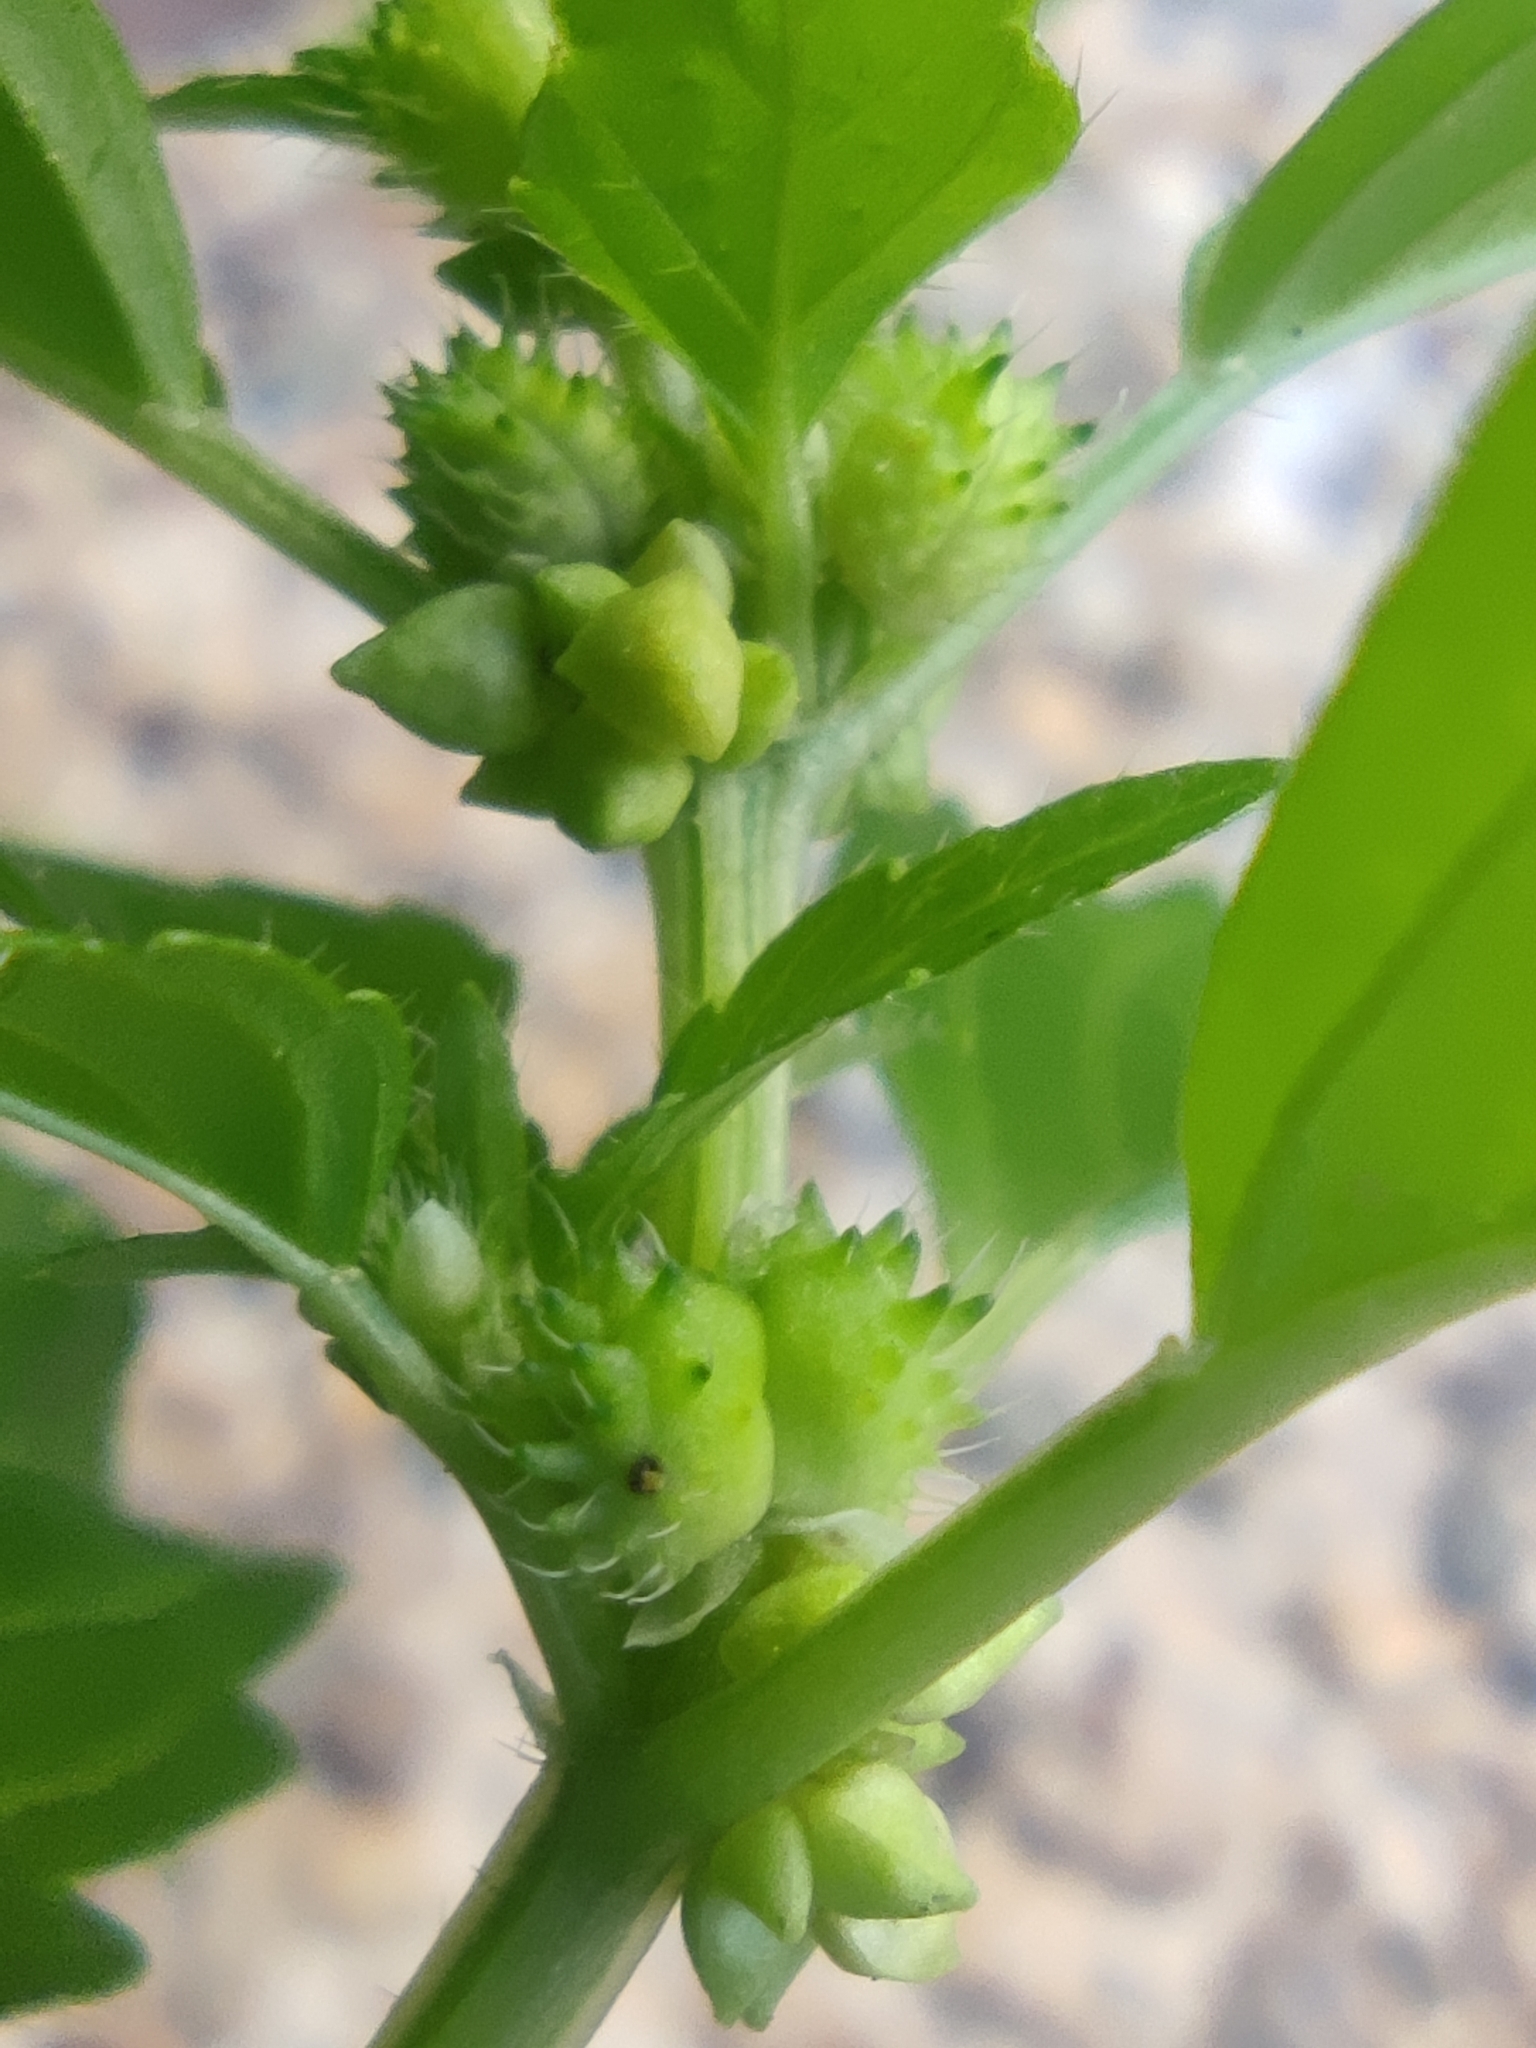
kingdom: Plantae
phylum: Tracheophyta
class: Magnoliopsida
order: Malpighiales
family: Euphorbiaceae
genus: Mercurialis
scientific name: Mercurialis annua
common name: Annual mercury
